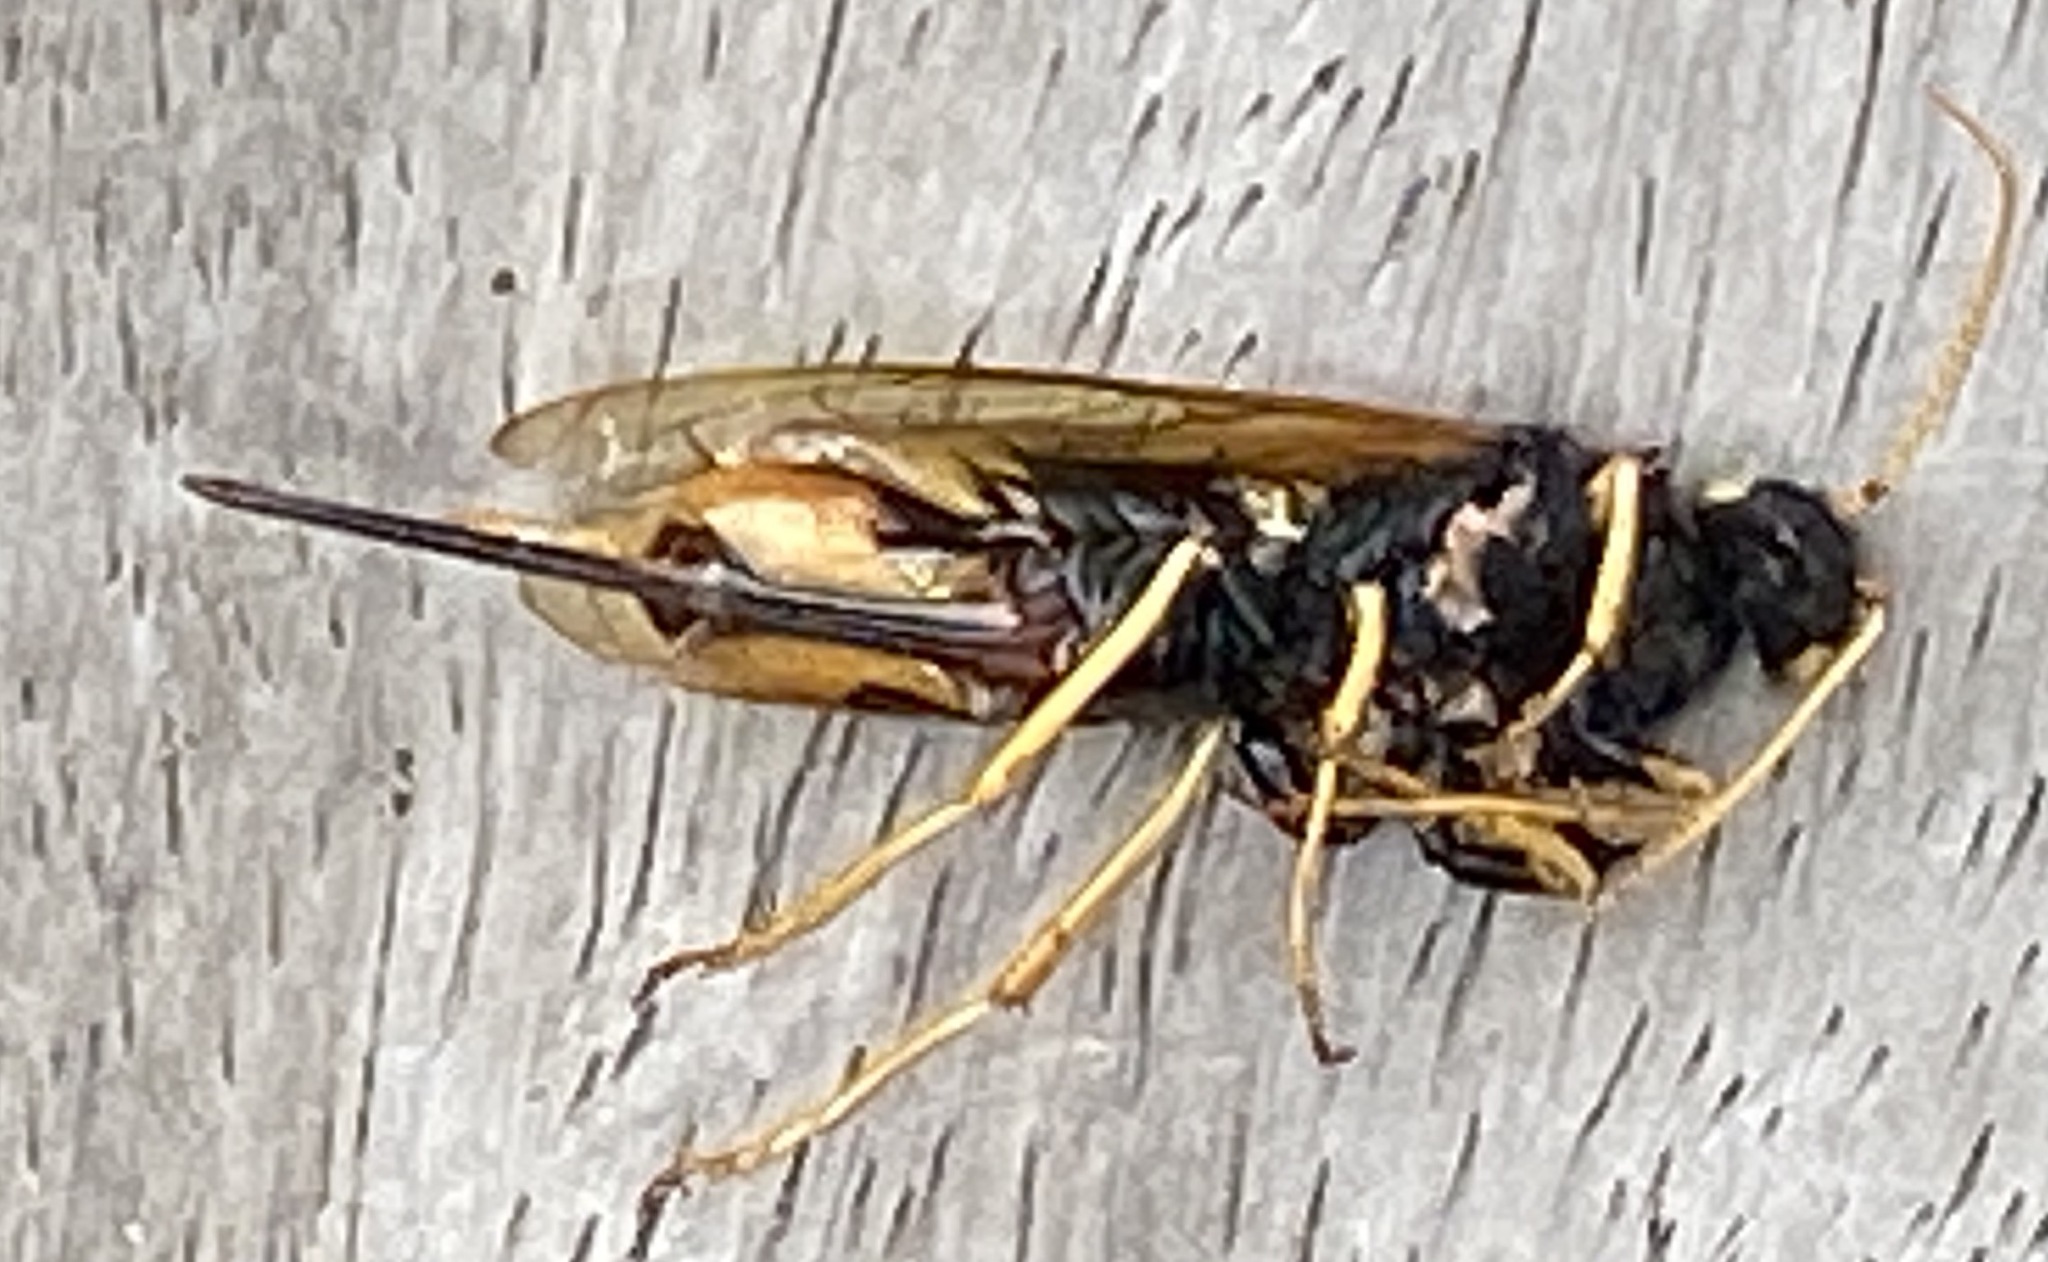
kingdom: Animalia
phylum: Arthropoda
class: Insecta
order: Hymenoptera
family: Siricidae
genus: Urocerus
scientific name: Urocerus gigas
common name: Giant woodwasp
